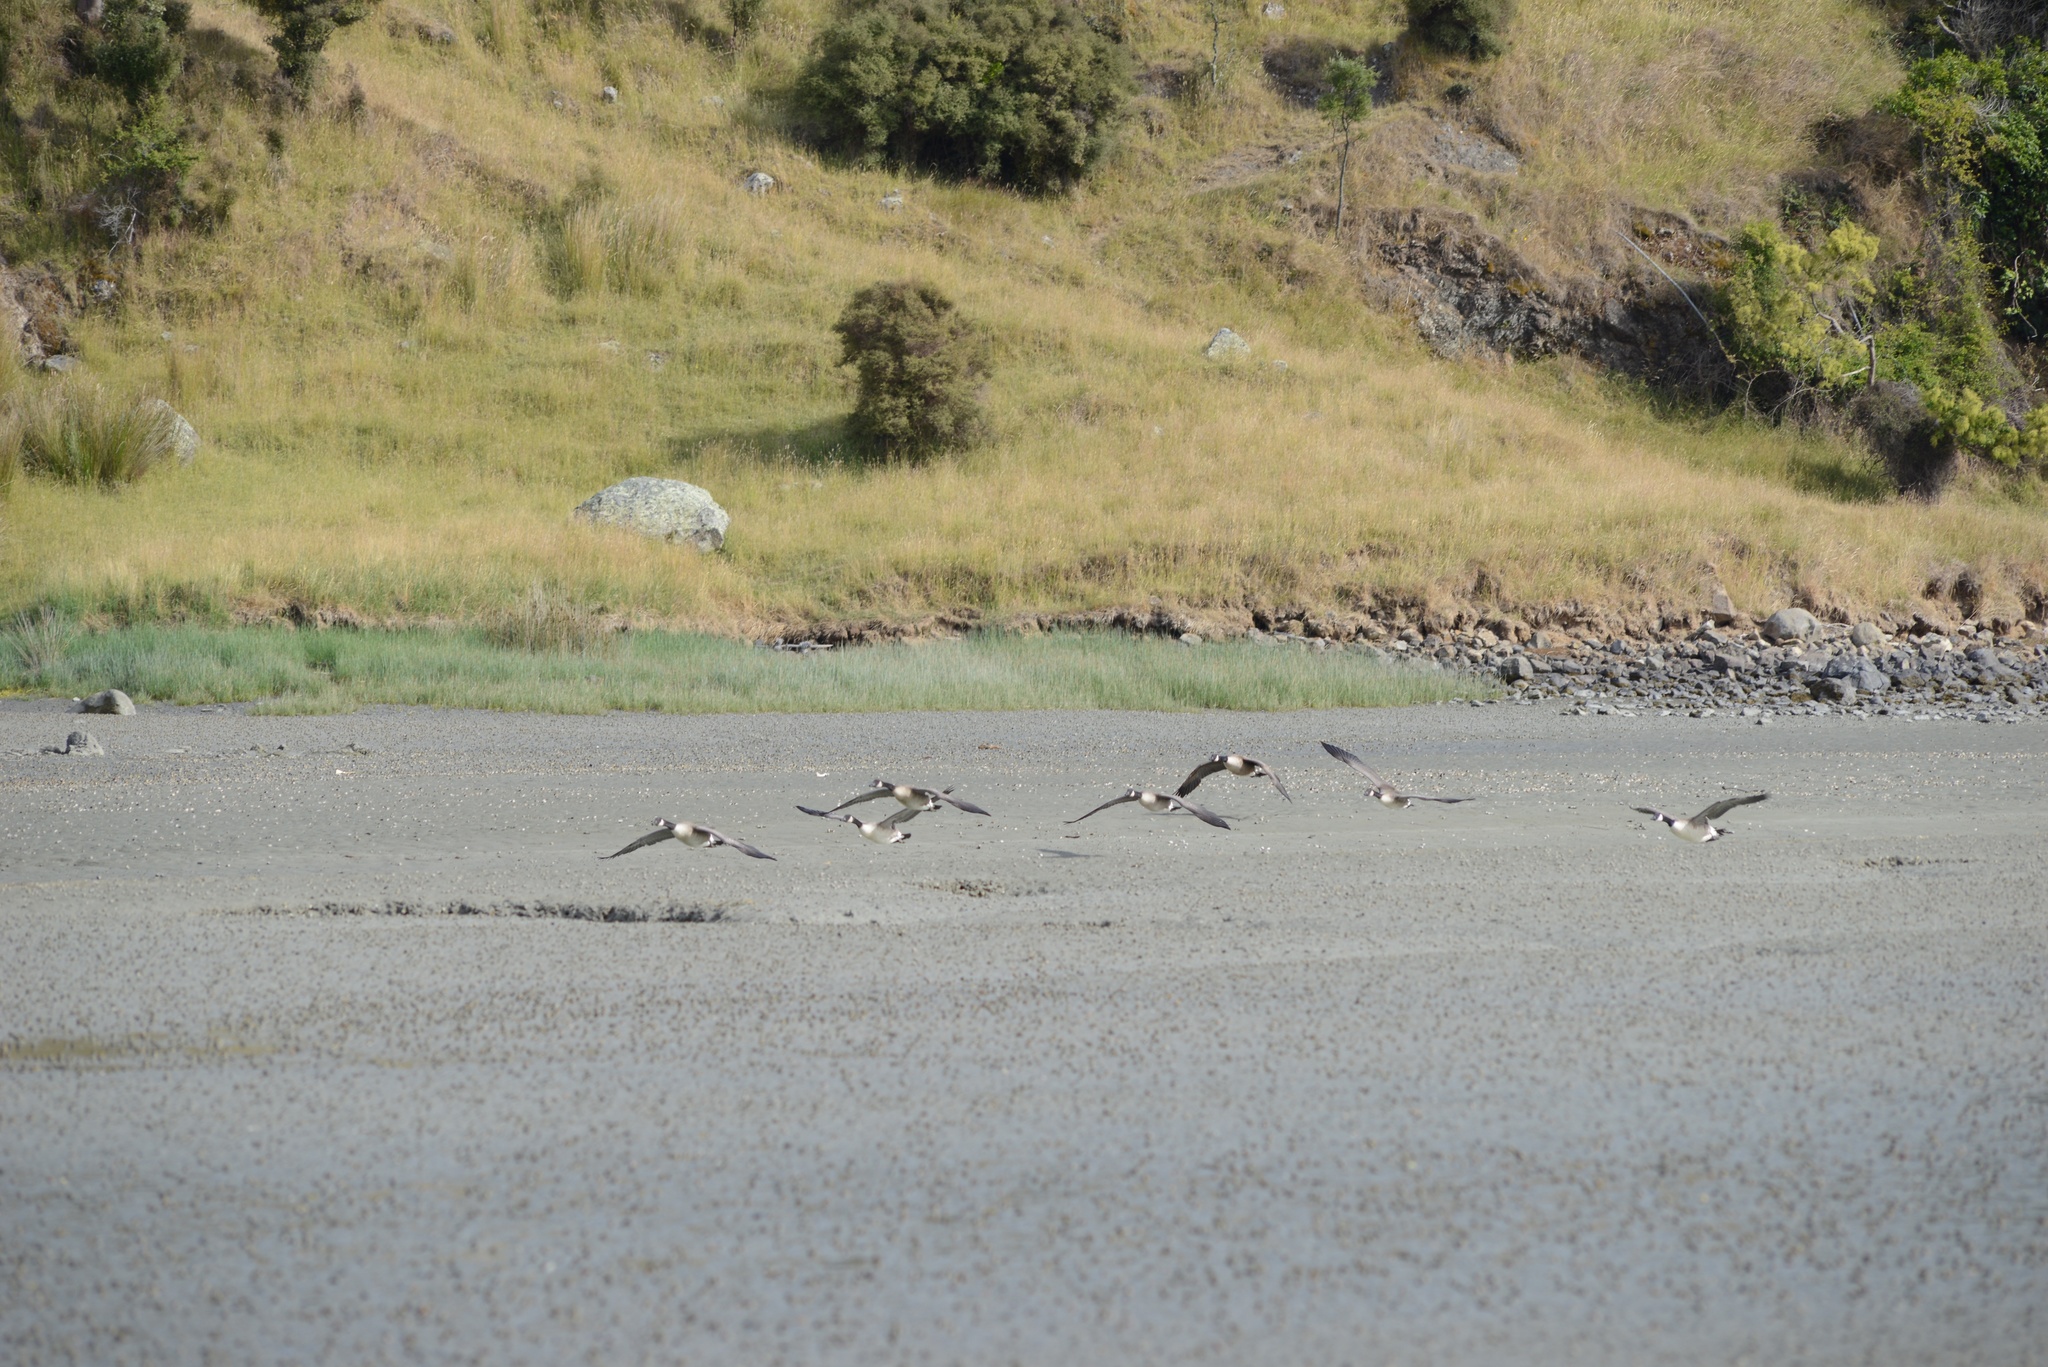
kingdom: Animalia
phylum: Chordata
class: Aves
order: Anseriformes
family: Anatidae
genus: Branta
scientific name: Branta canadensis
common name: Canada goose
